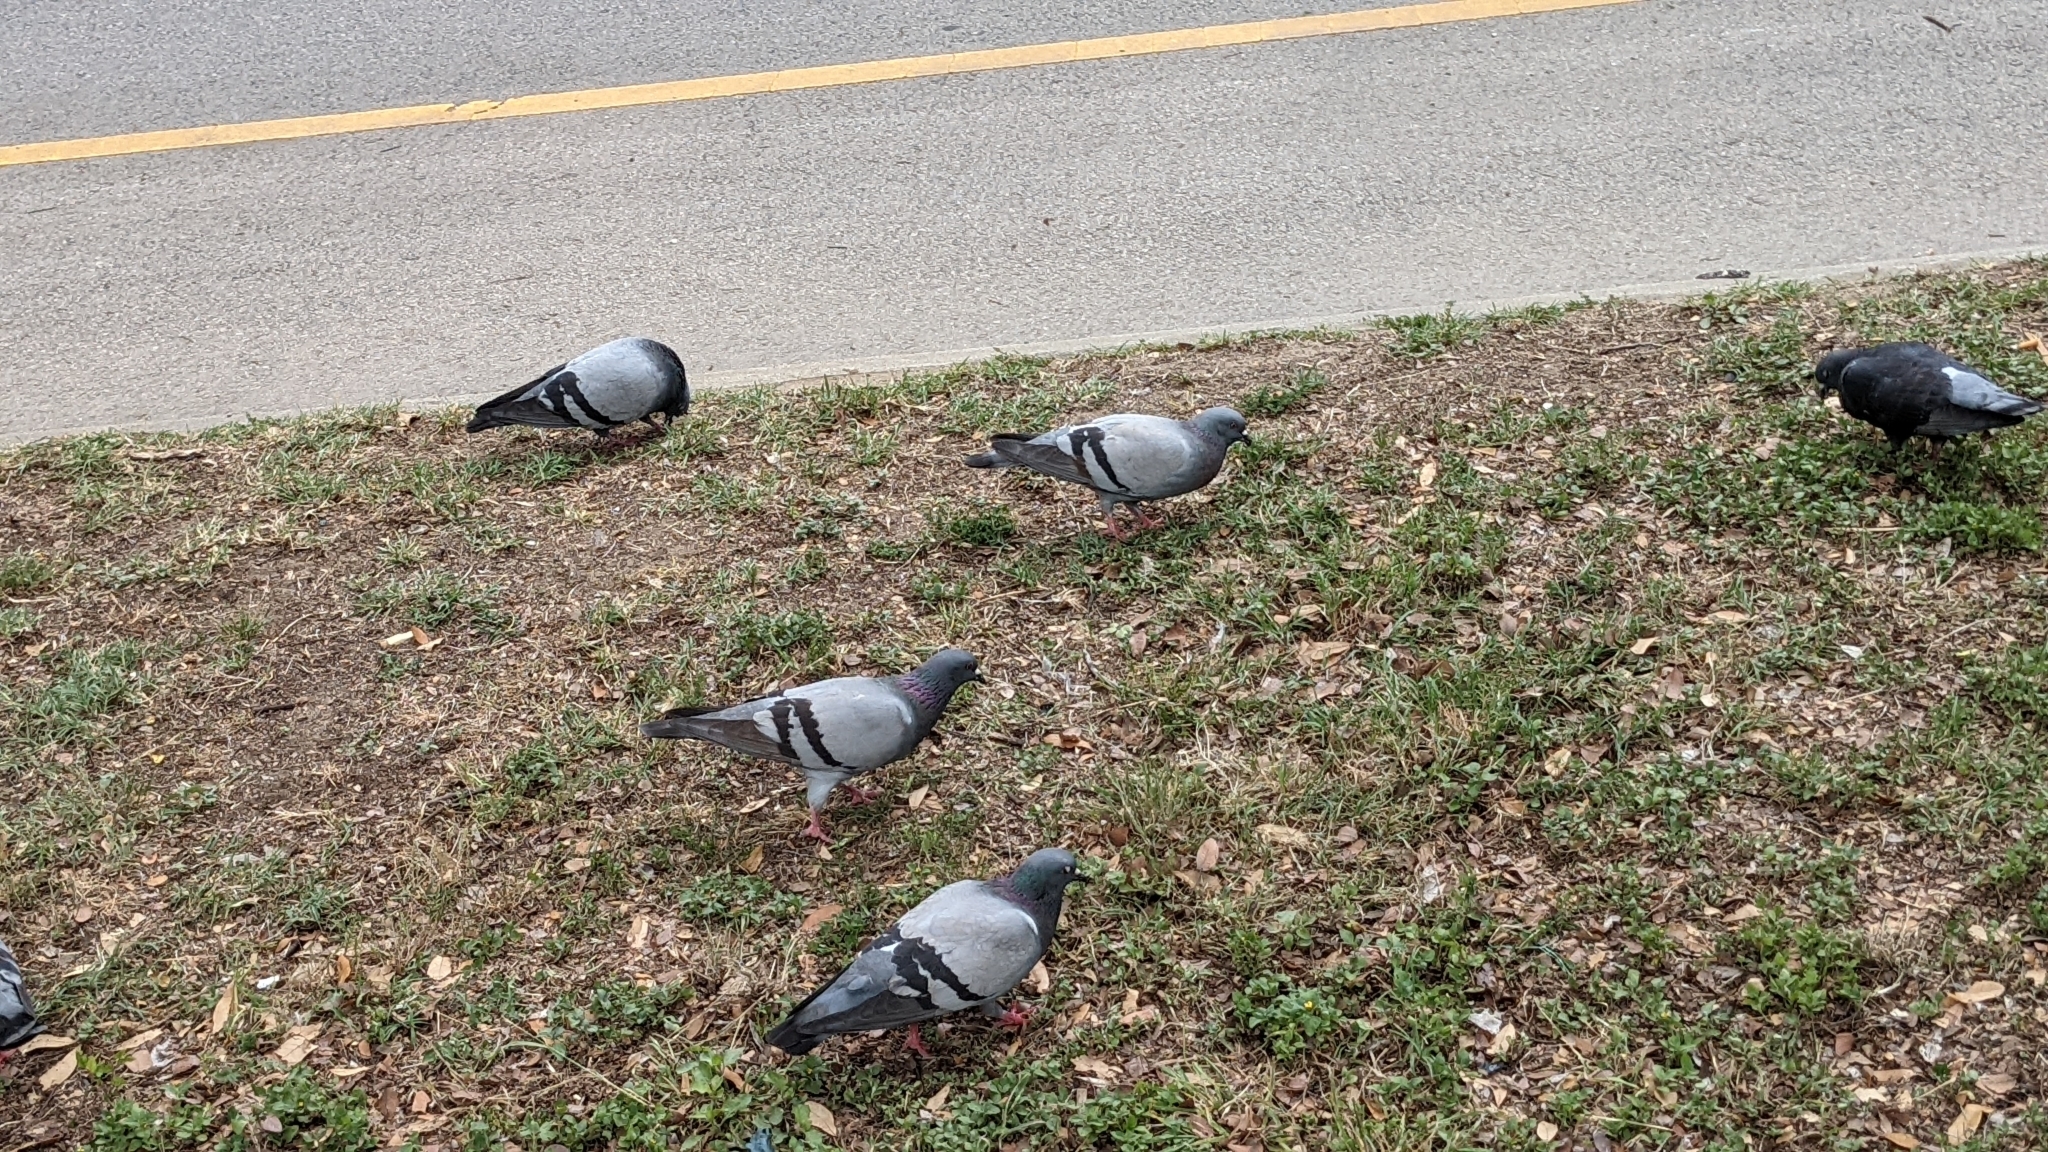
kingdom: Animalia
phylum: Chordata
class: Aves
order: Columbiformes
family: Columbidae
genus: Columba
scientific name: Columba livia
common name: Rock pigeon
